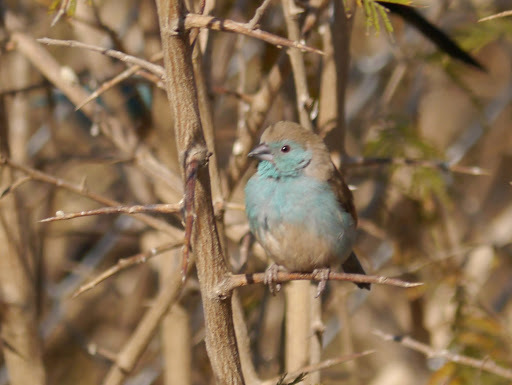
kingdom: Animalia
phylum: Chordata
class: Aves
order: Passeriformes
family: Estrildidae
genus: Uraeginthus
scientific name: Uraeginthus angolensis
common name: Blue waxbill
